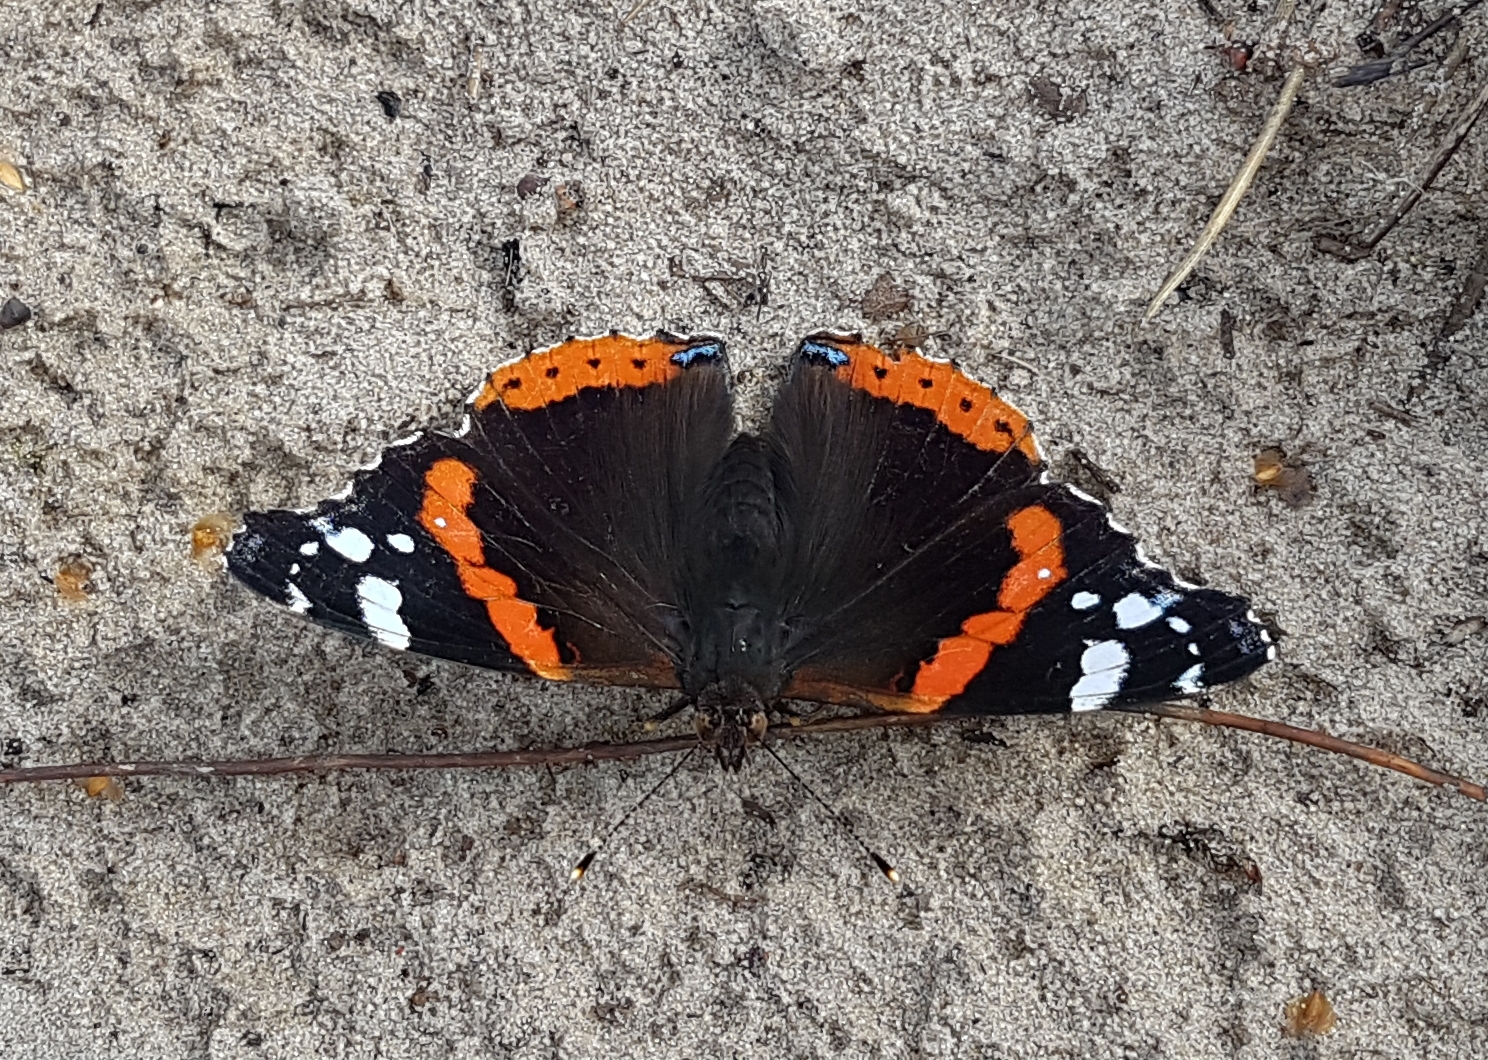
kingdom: Animalia
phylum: Arthropoda
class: Insecta
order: Lepidoptera
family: Nymphalidae
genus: Vanessa
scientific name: Vanessa atalanta
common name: Red admiral
